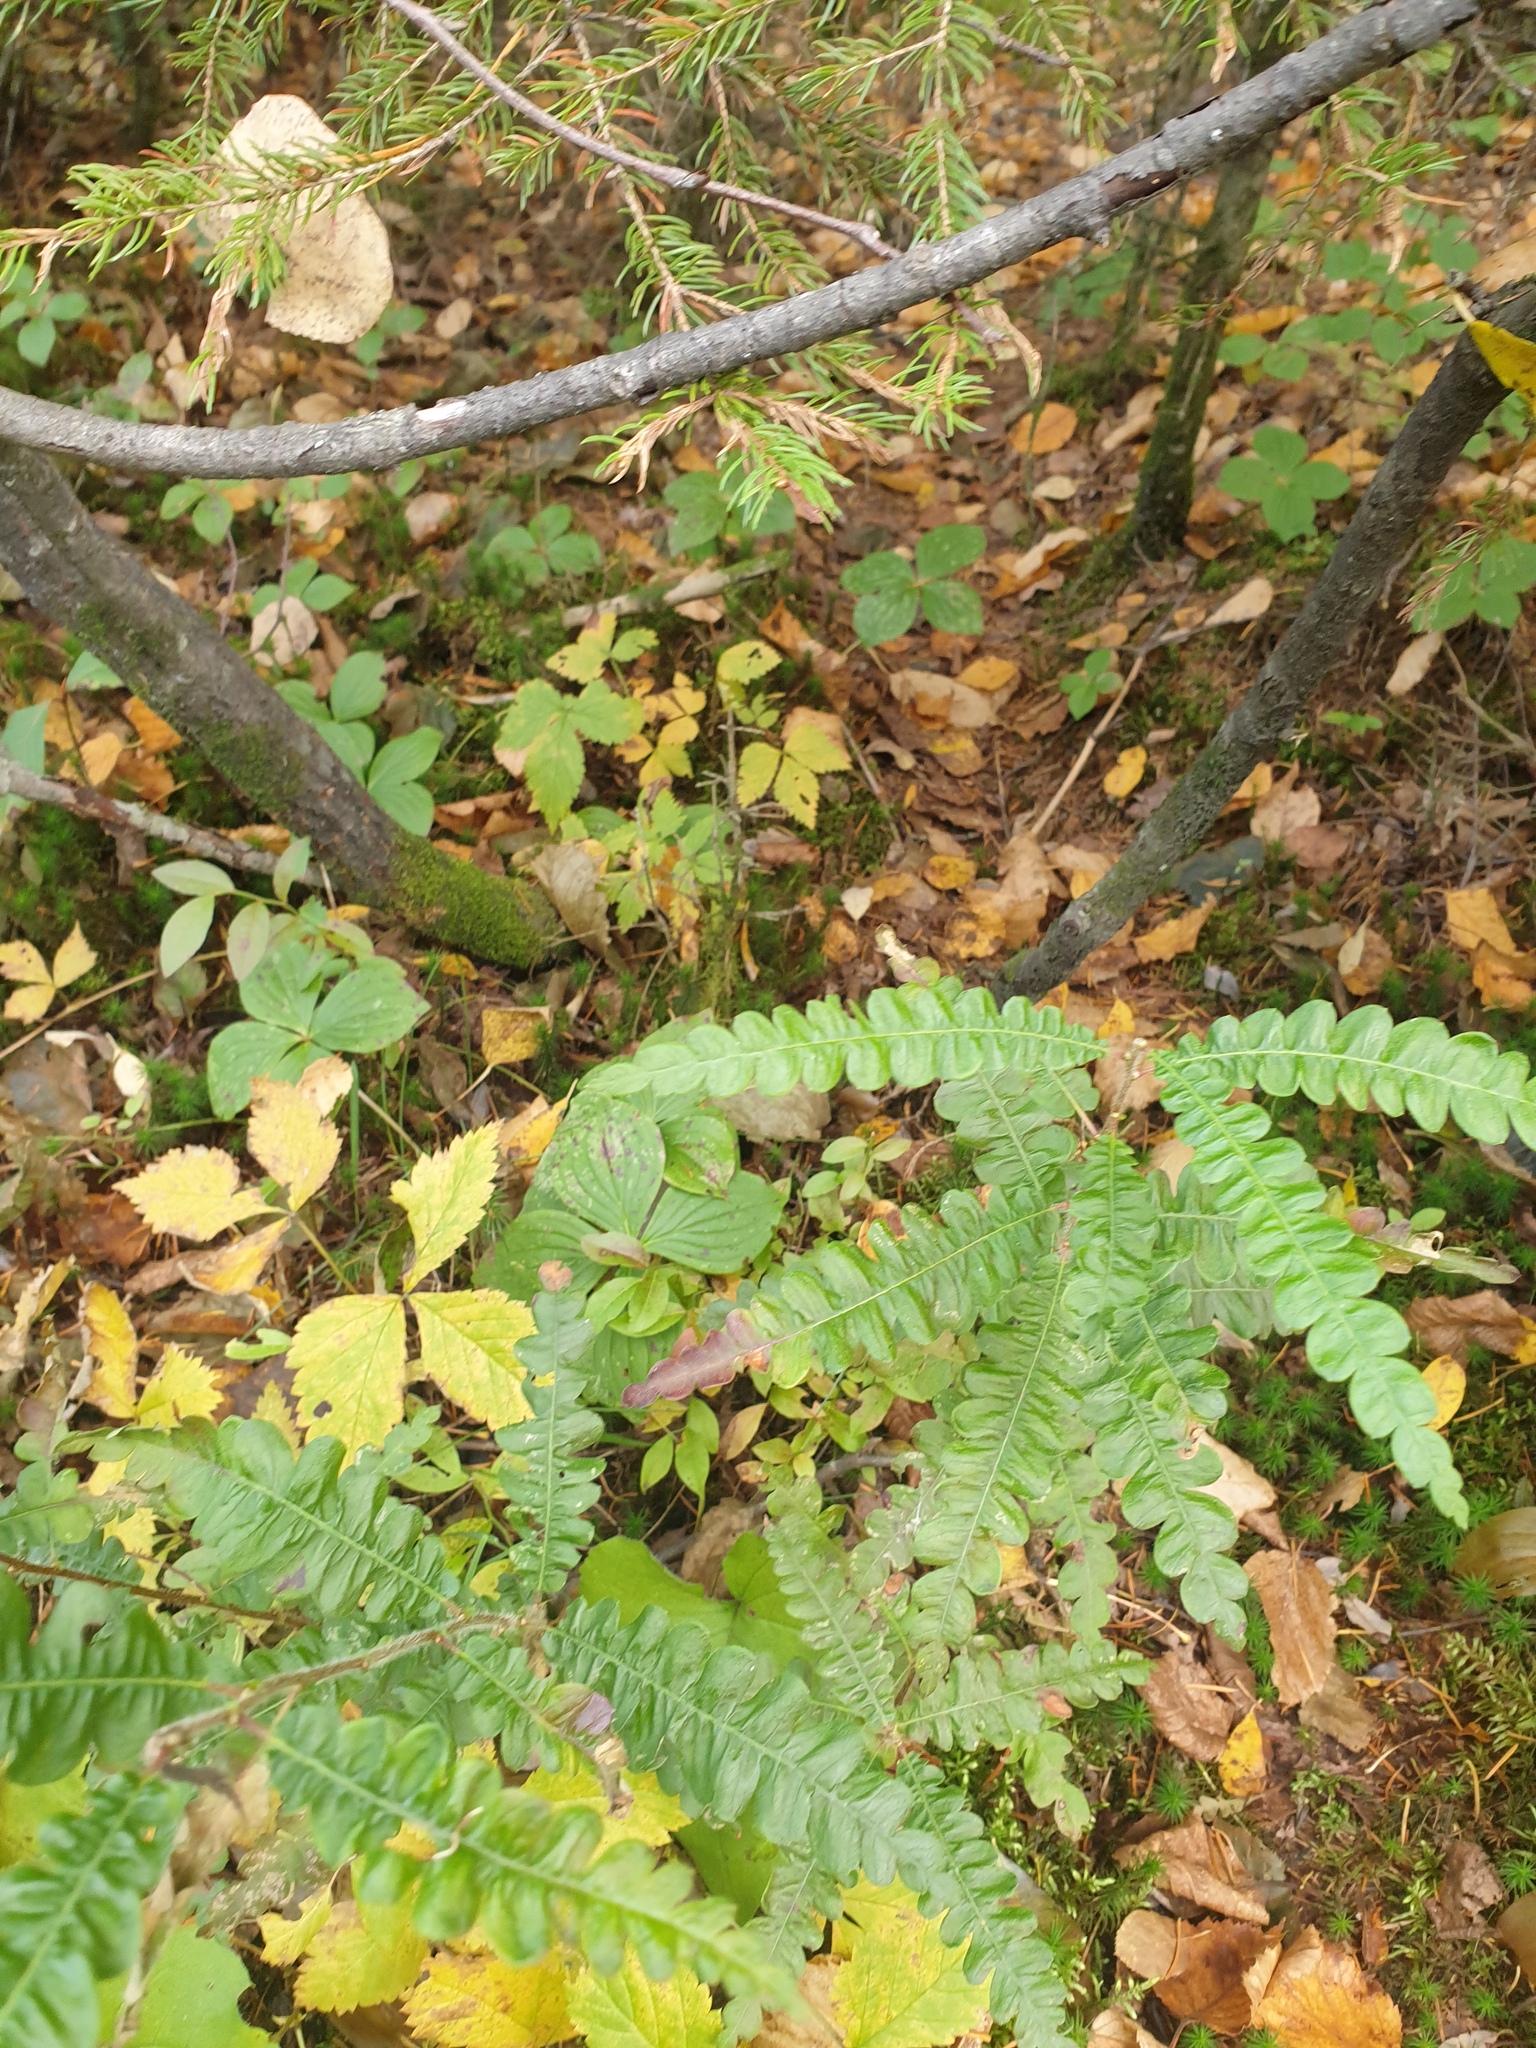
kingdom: Plantae
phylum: Tracheophyta
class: Magnoliopsida
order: Fagales
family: Myricaceae
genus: Comptonia
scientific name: Comptonia peregrina
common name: Sweet-fern
